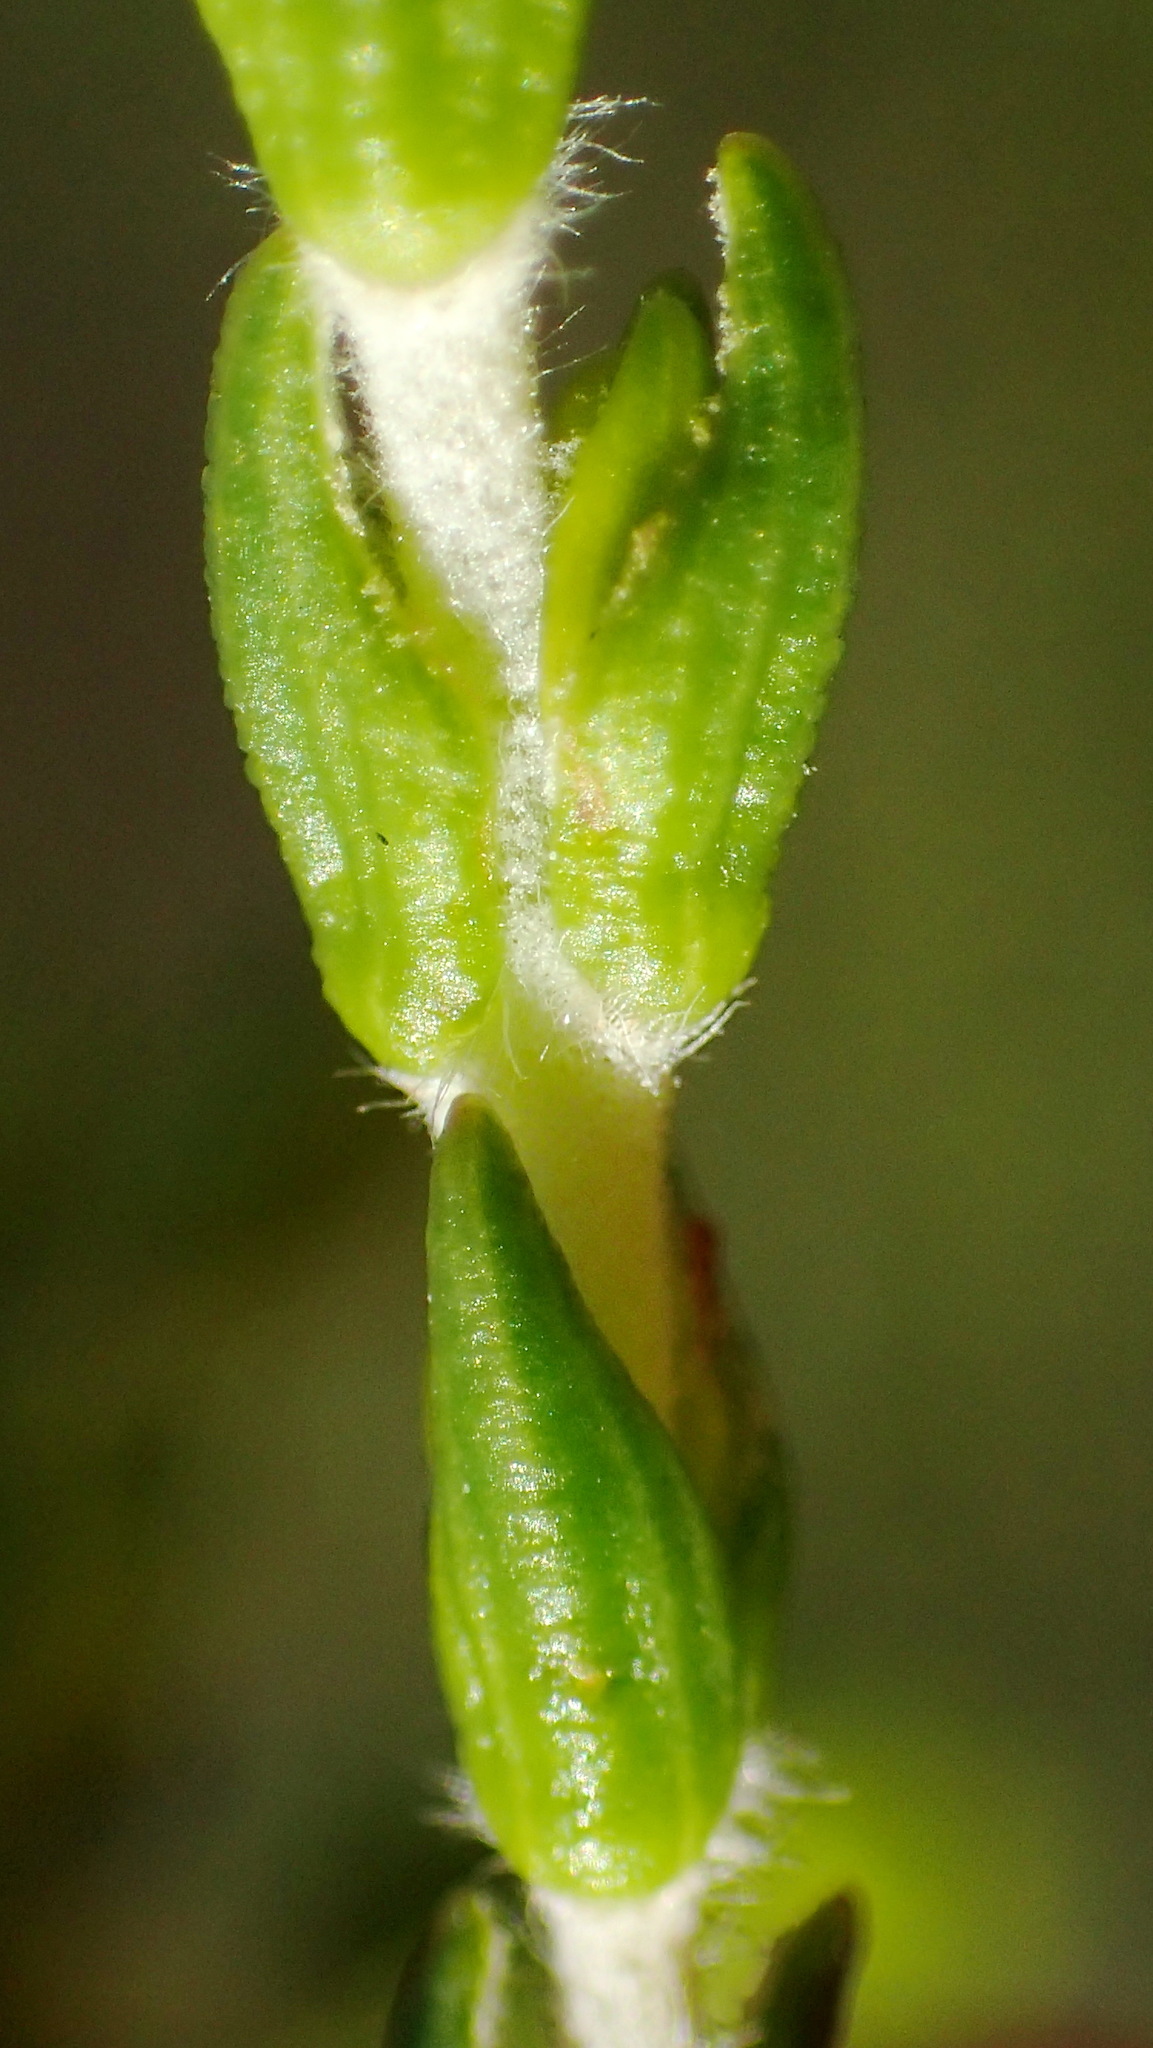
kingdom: Plantae
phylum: Tracheophyta
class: Magnoliopsida
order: Malvales
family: Thymelaeaceae
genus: Passerina
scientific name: Passerina rigida
